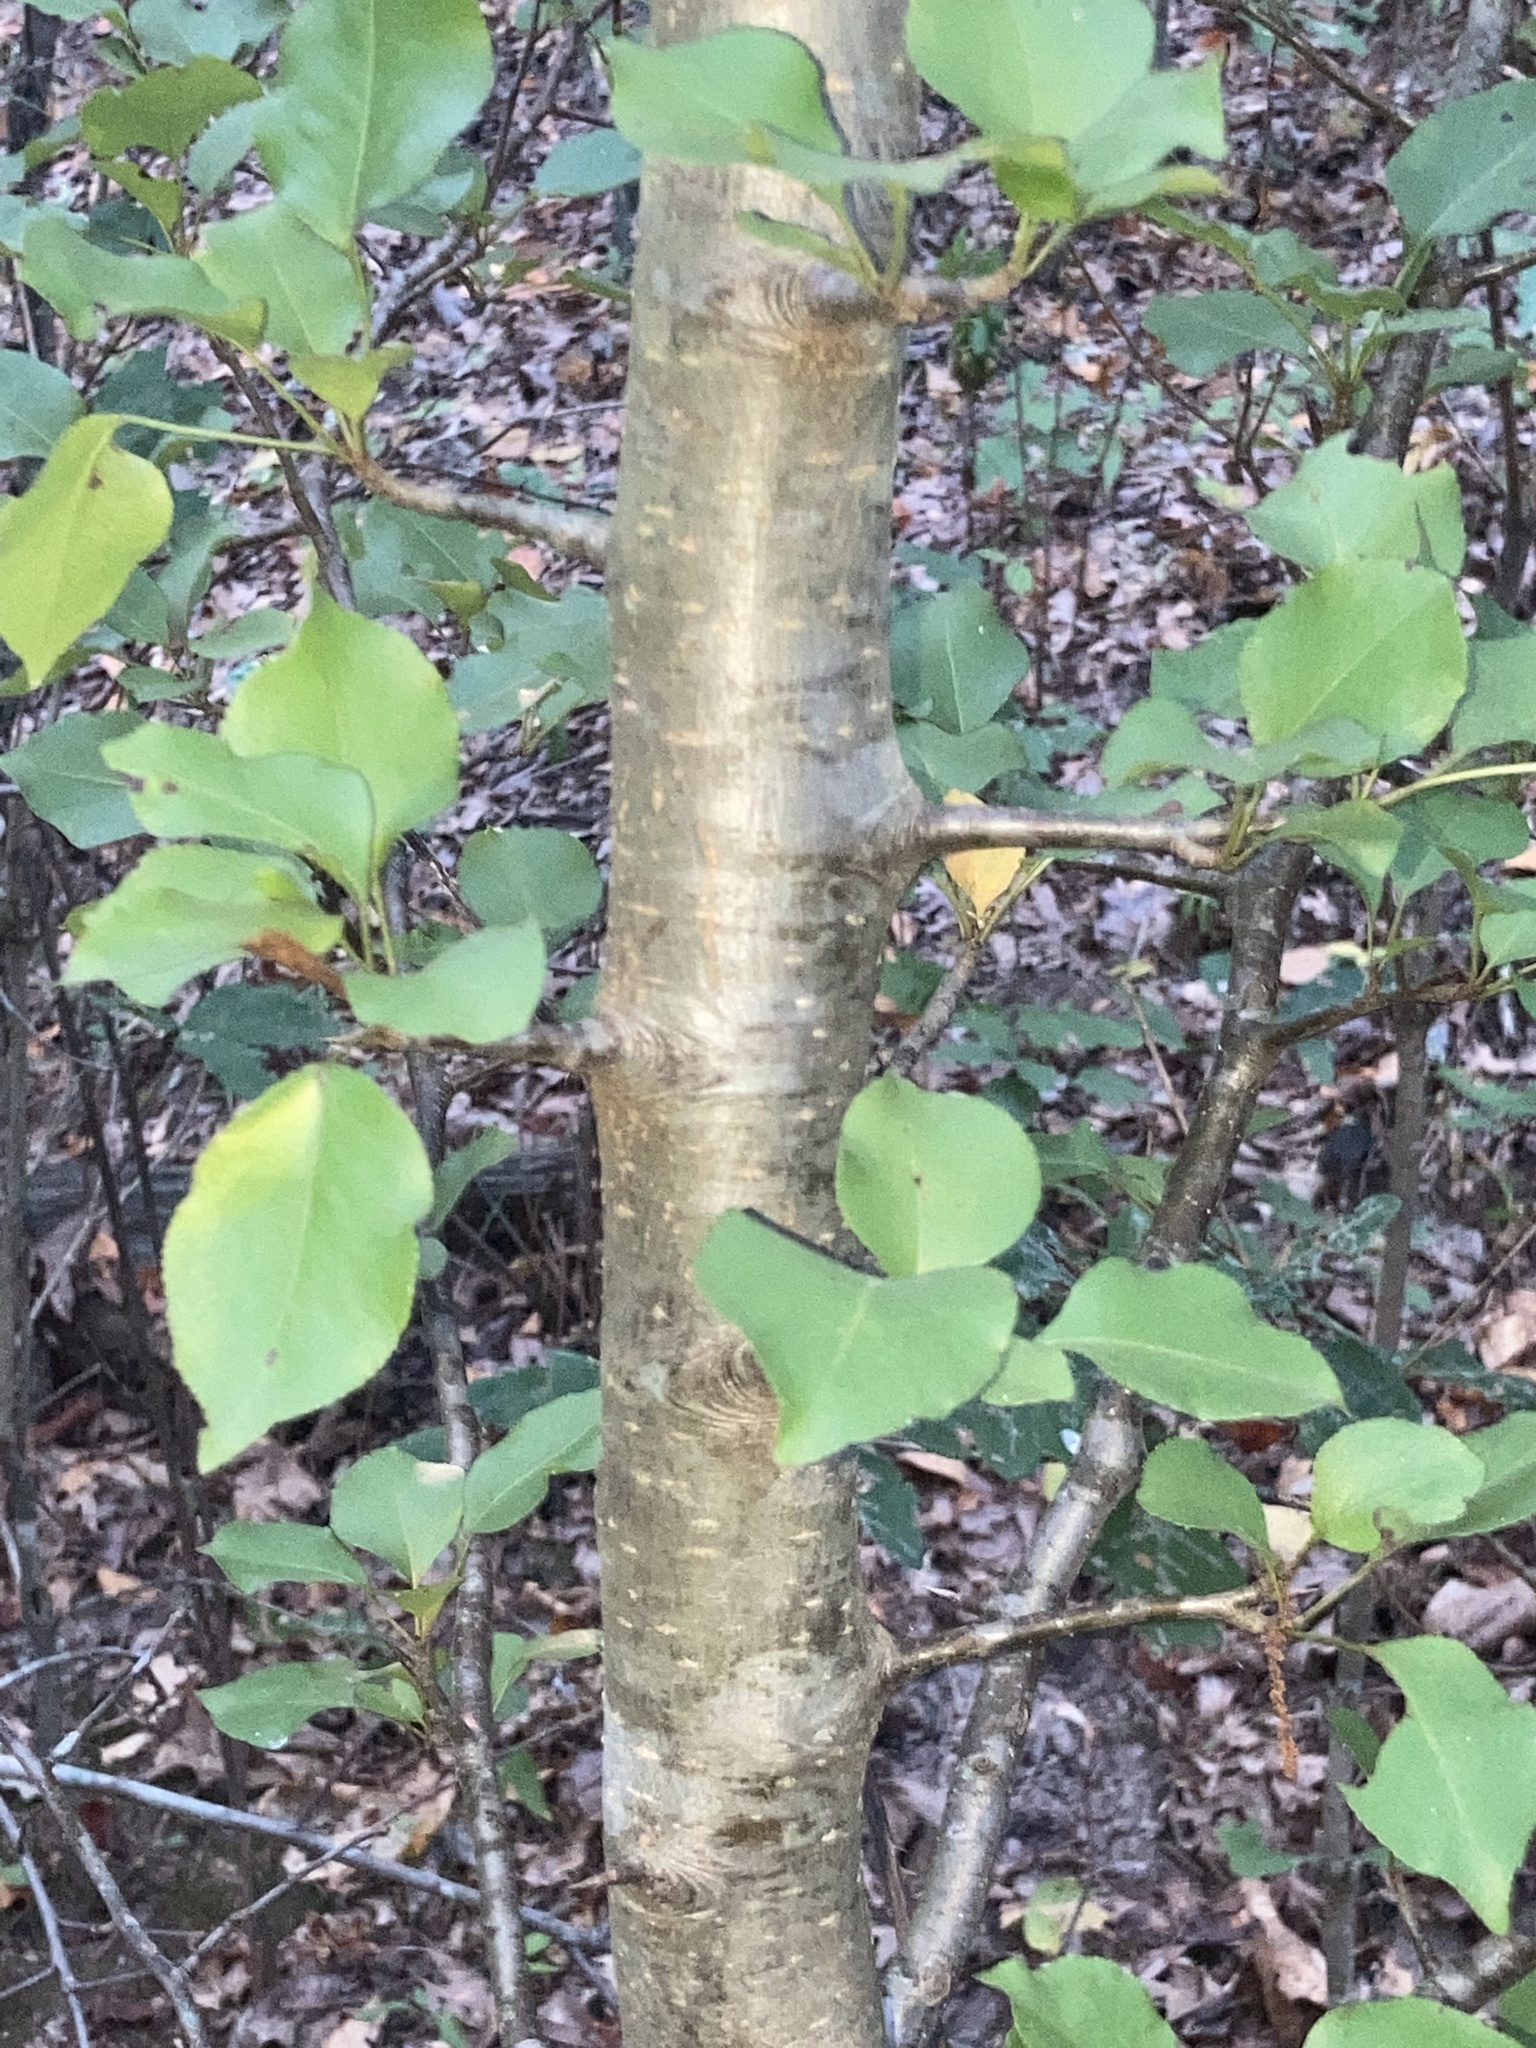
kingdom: Plantae
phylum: Tracheophyta
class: Magnoliopsida
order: Rosales
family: Rosaceae
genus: Pyrus
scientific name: Pyrus calleryana
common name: Callery pear
